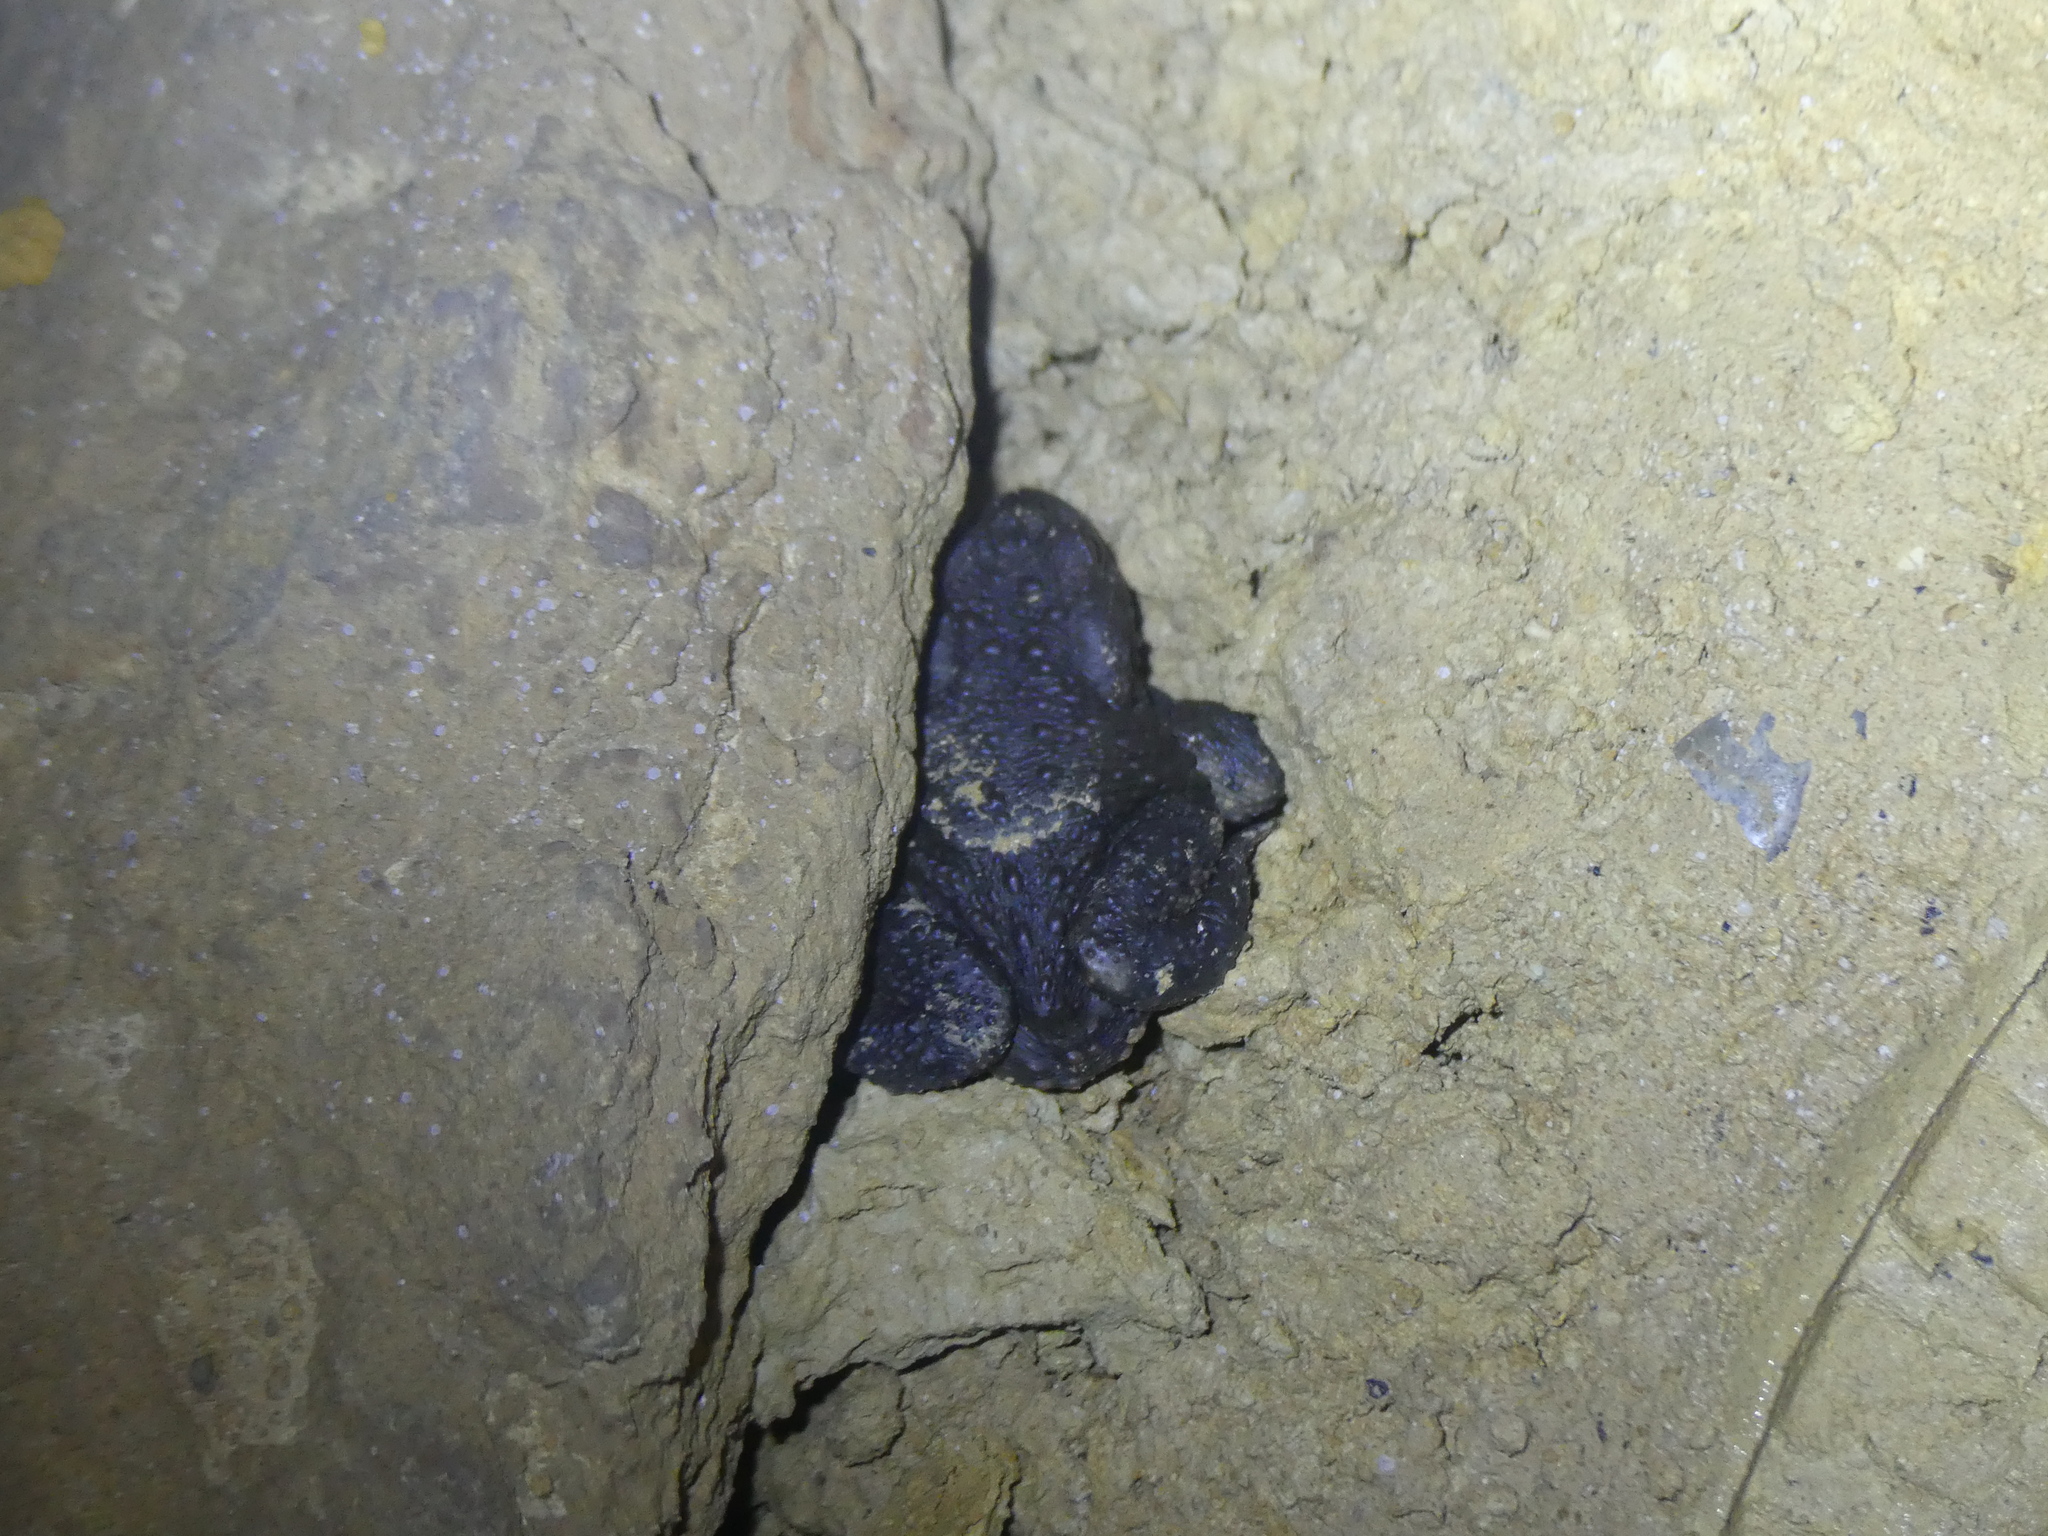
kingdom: Animalia
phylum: Chordata
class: Amphibia
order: Anura
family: Bufonidae
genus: Bufo
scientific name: Bufo bufo
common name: Common toad
